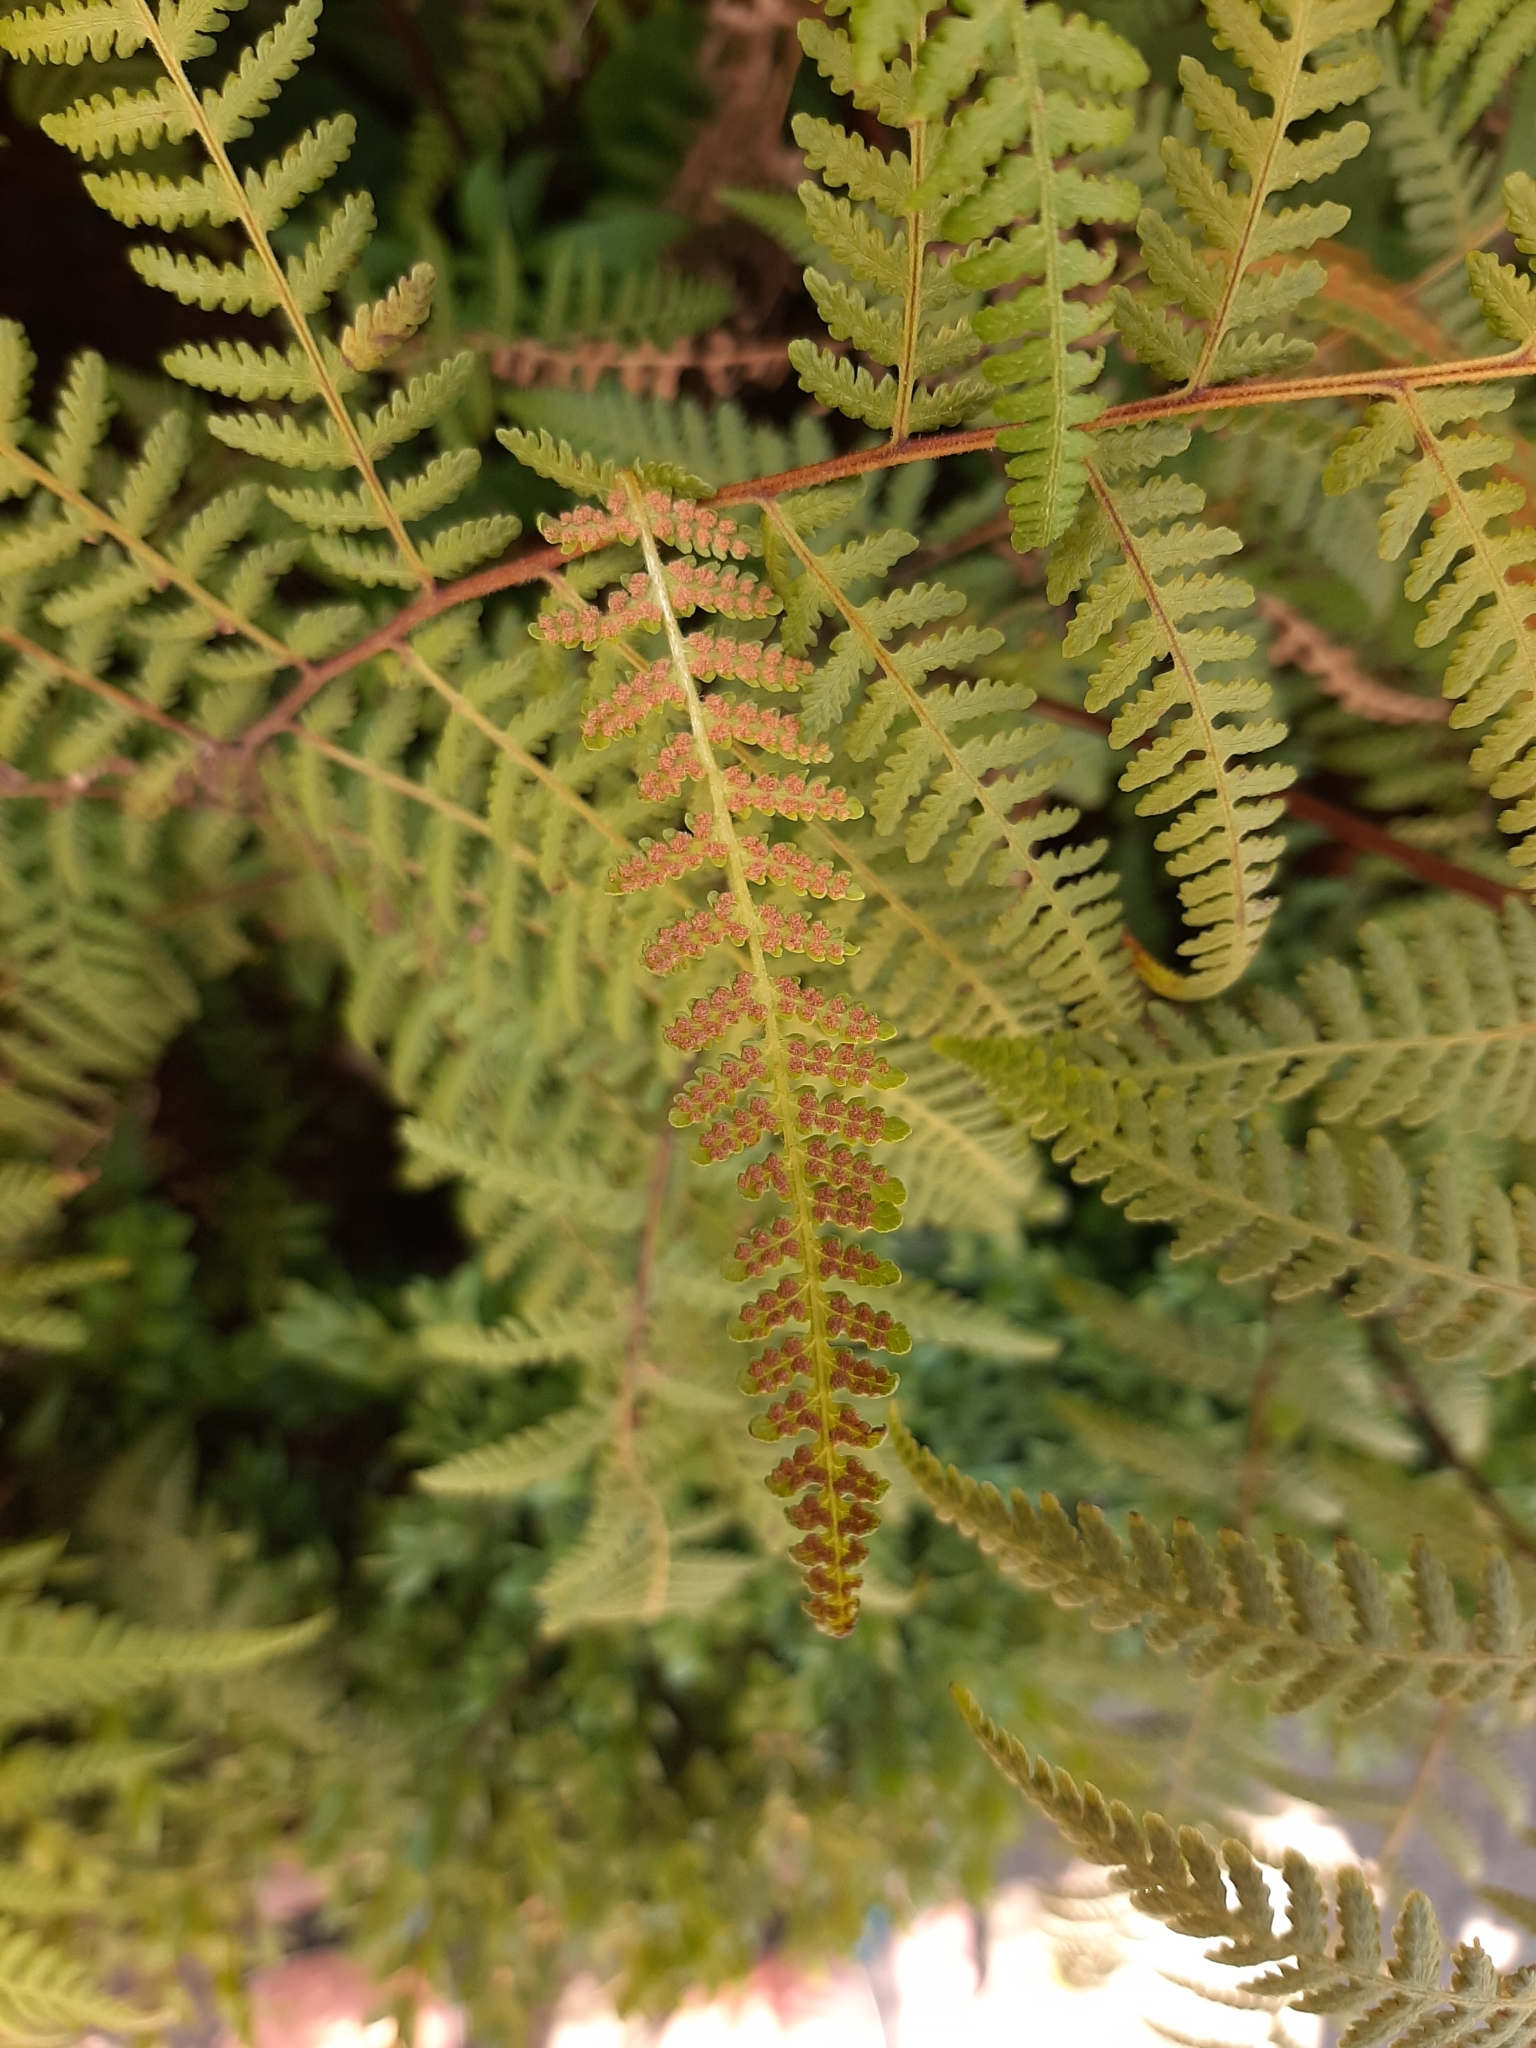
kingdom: Plantae
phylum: Tracheophyta
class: Polypodiopsida
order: Polypodiales
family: Dennstaedtiaceae
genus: Hypolepis
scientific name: Hypolepis ambigua
